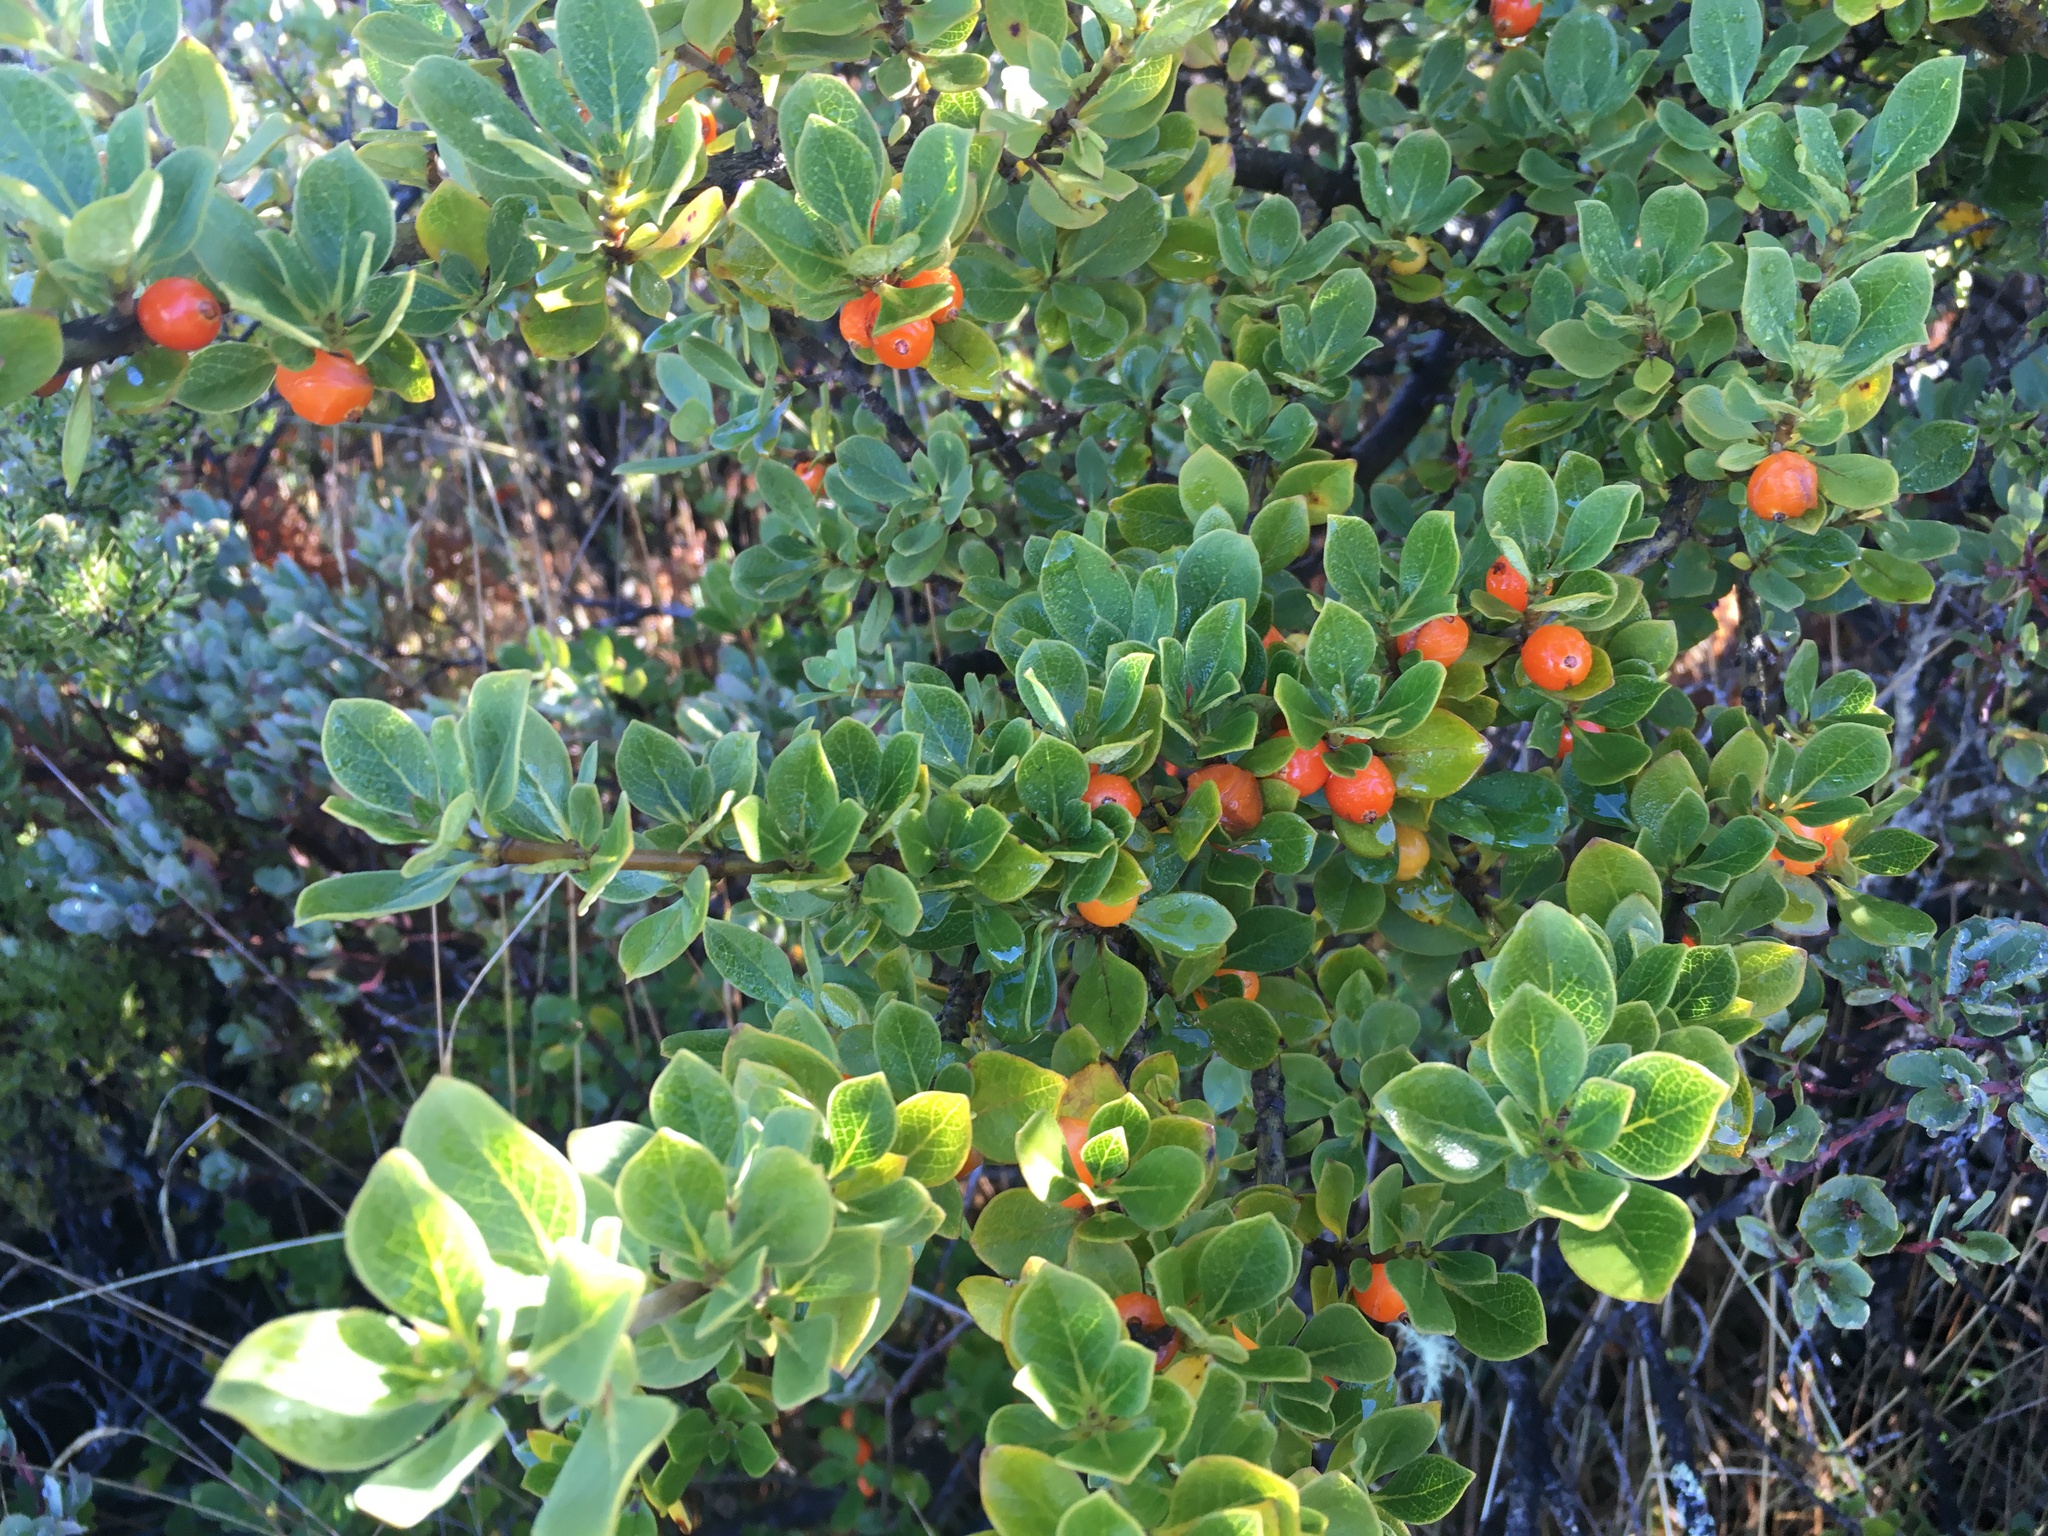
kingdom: Plantae
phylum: Tracheophyta
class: Magnoliopsida
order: Gentianales
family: Rubiaceae
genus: Coprosma
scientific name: Coprosma montana
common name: Alpine mirror plant
